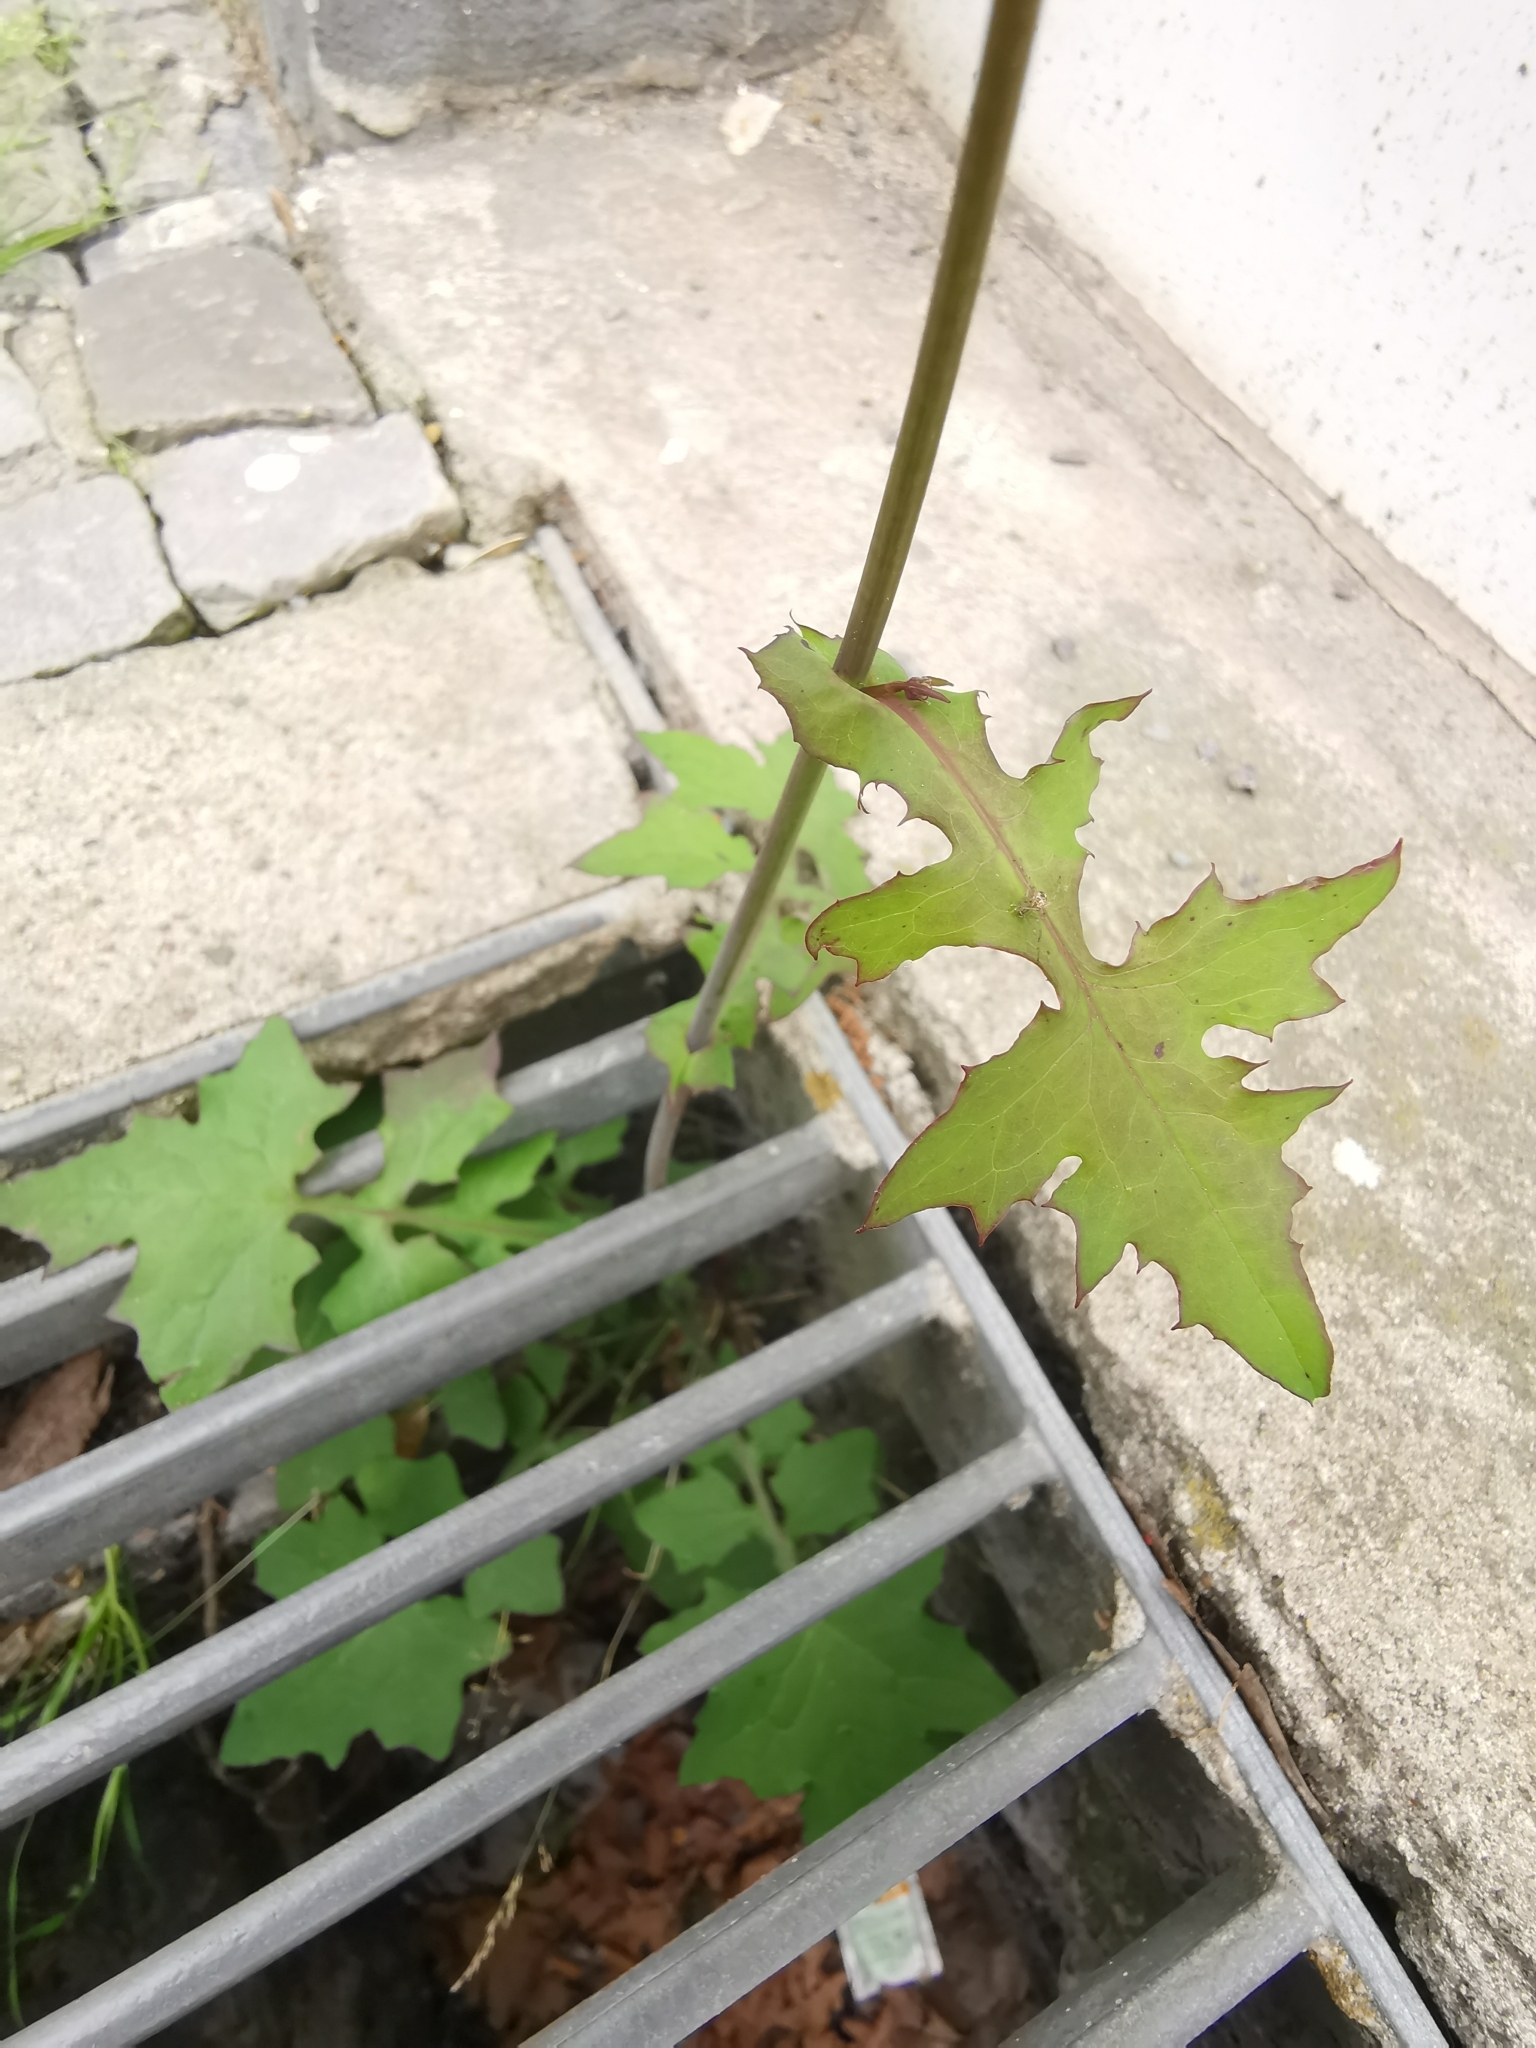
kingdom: Plantae
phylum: Tracheophyta
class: Magnoliopsida
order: Asterales
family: Asteraceae
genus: Mycelis
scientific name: Mycelis muralis
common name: Wall lettuce
